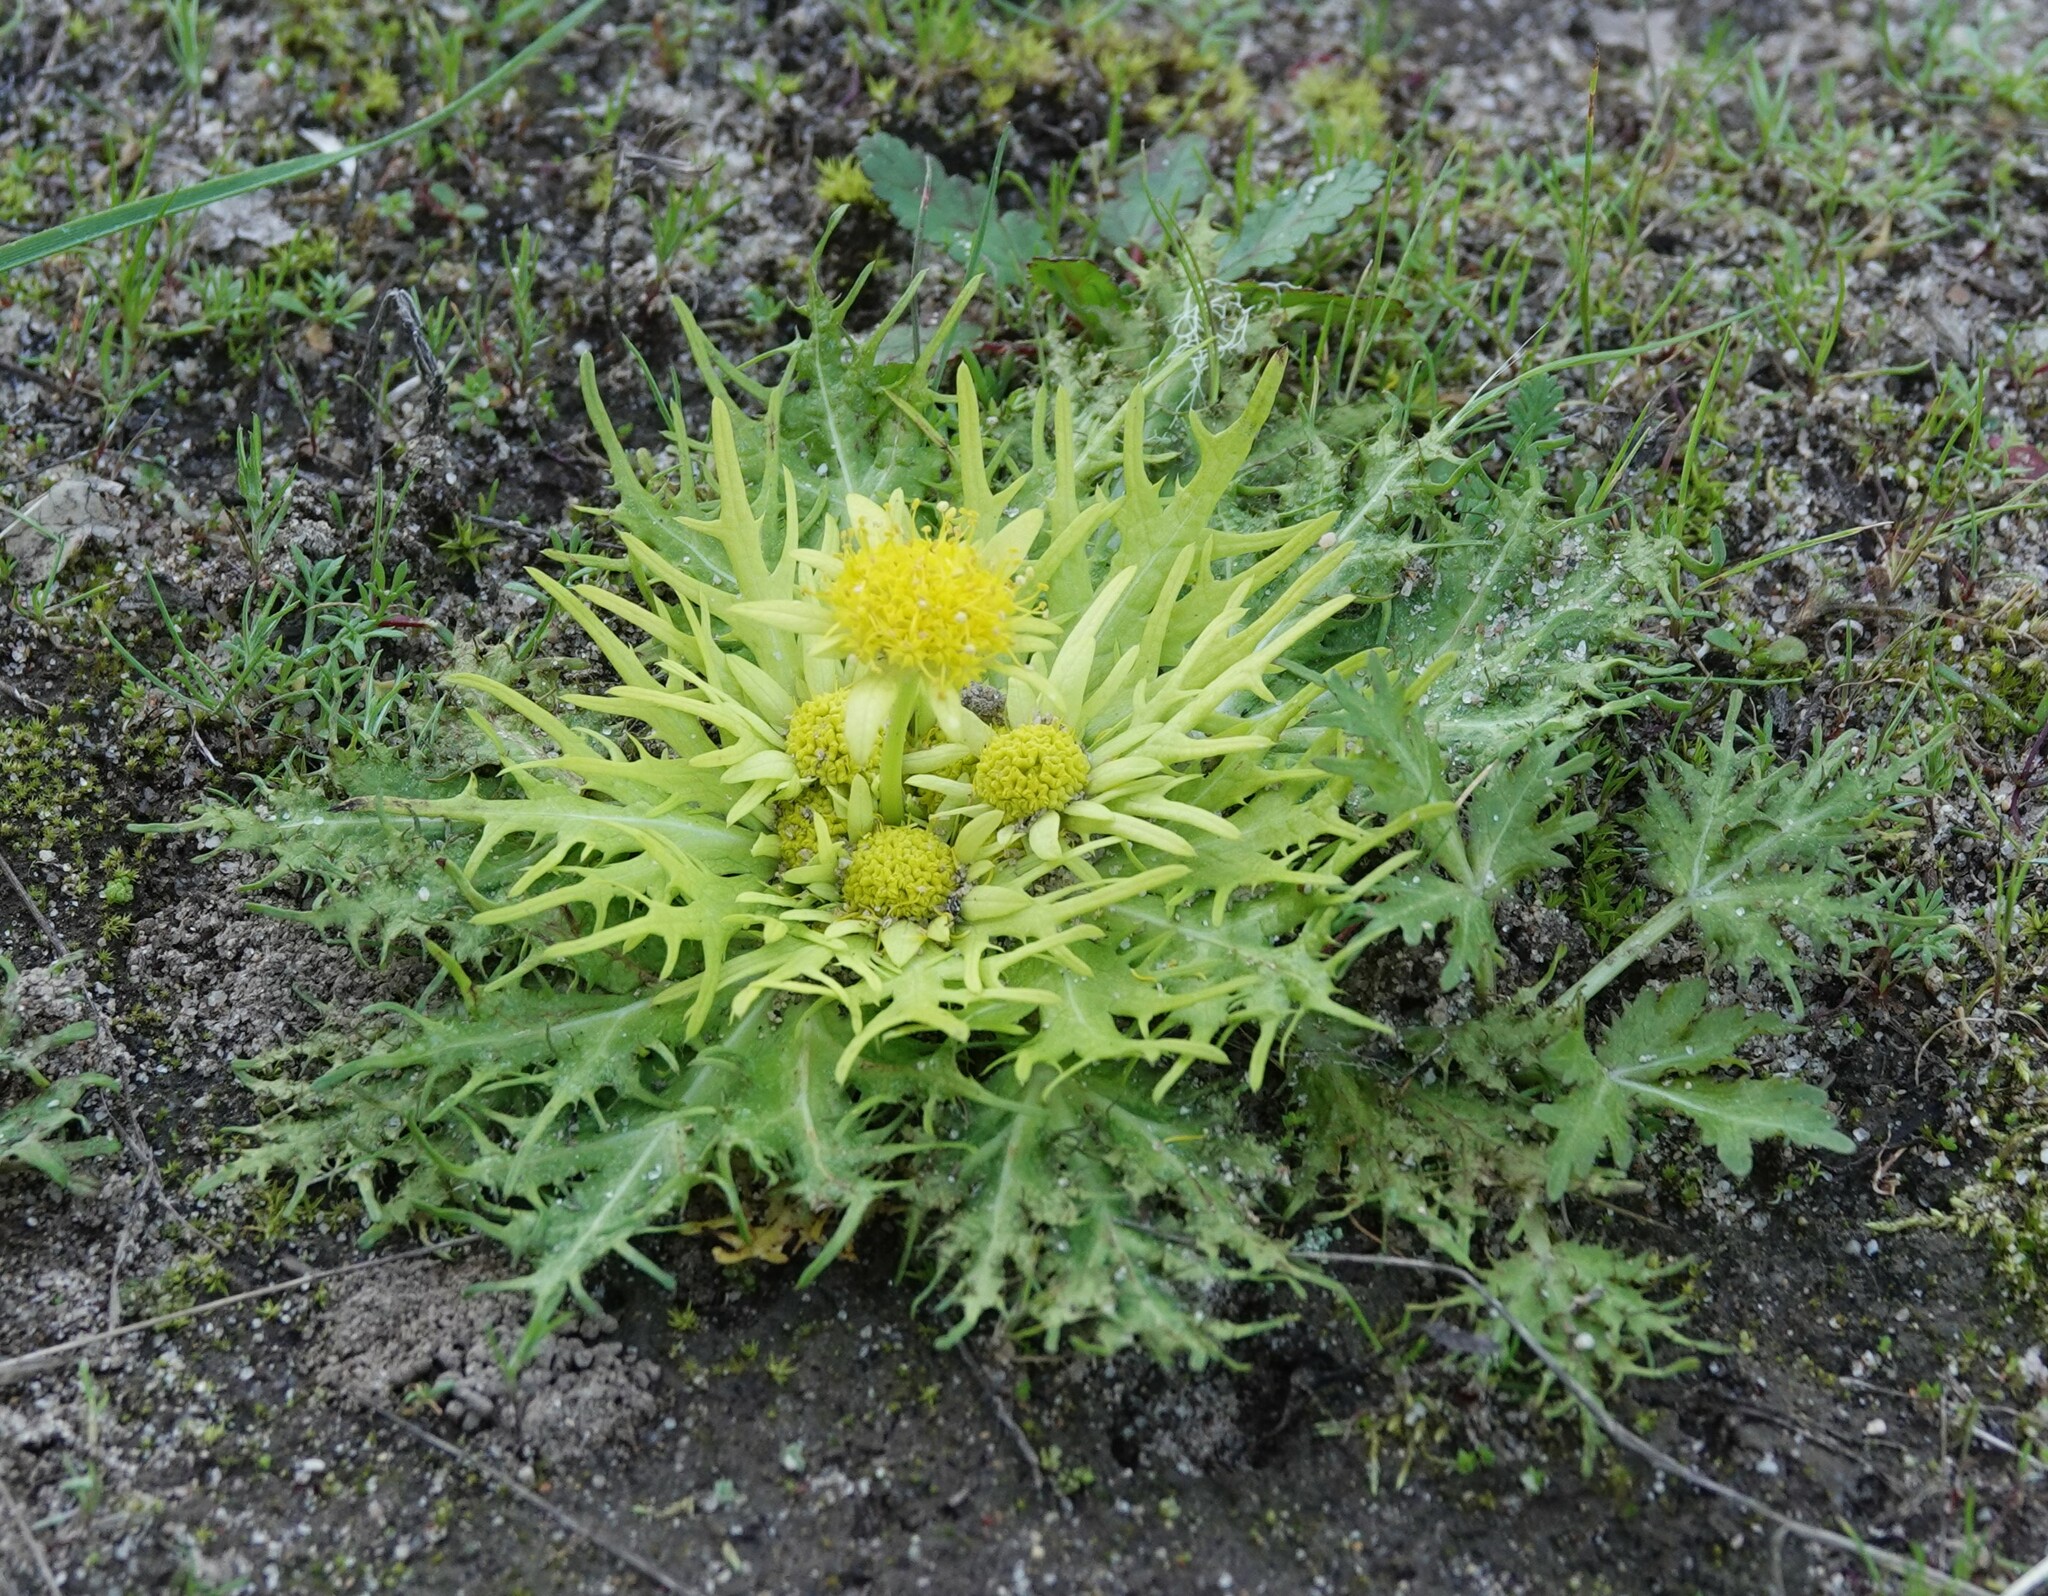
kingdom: Plantae
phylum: Tracheophyta
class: Magnoliopsida
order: Apiales
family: Apiaceae
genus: Sanicula
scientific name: Sanicula arctopoides
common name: Footsteps-of-spring
